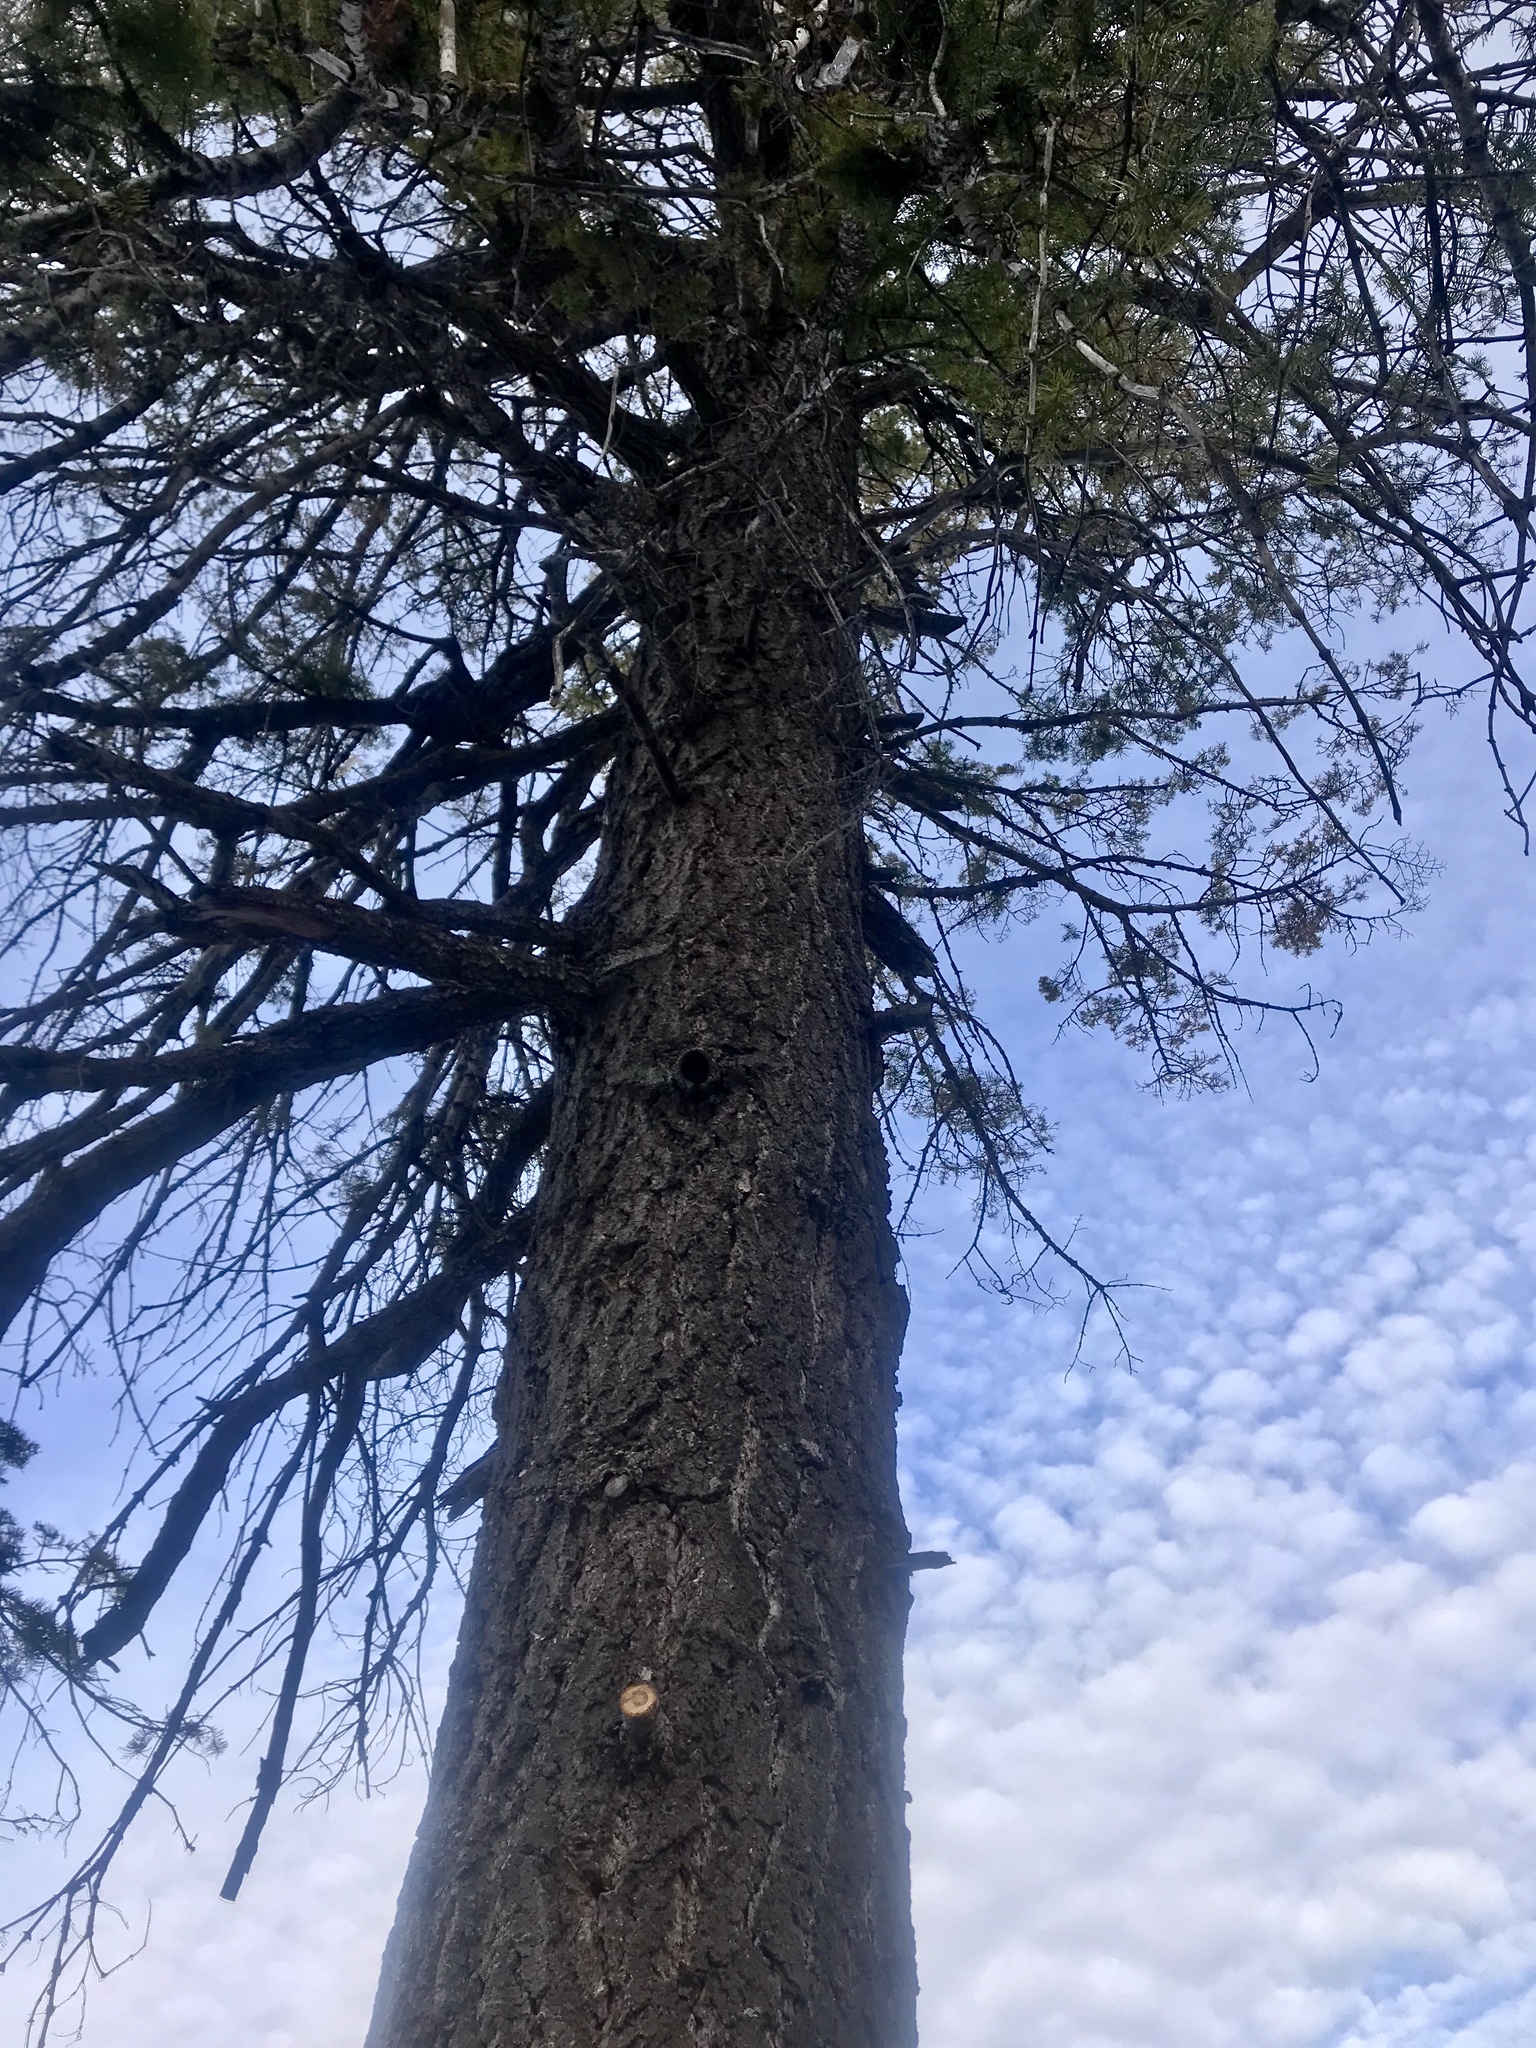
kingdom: Plantae
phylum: Tracheophyta
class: Pinopsida
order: Pinales
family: Pinaceae
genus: Pseudotsuga
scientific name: Pseudotsuga menziesii
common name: Douglas fir
